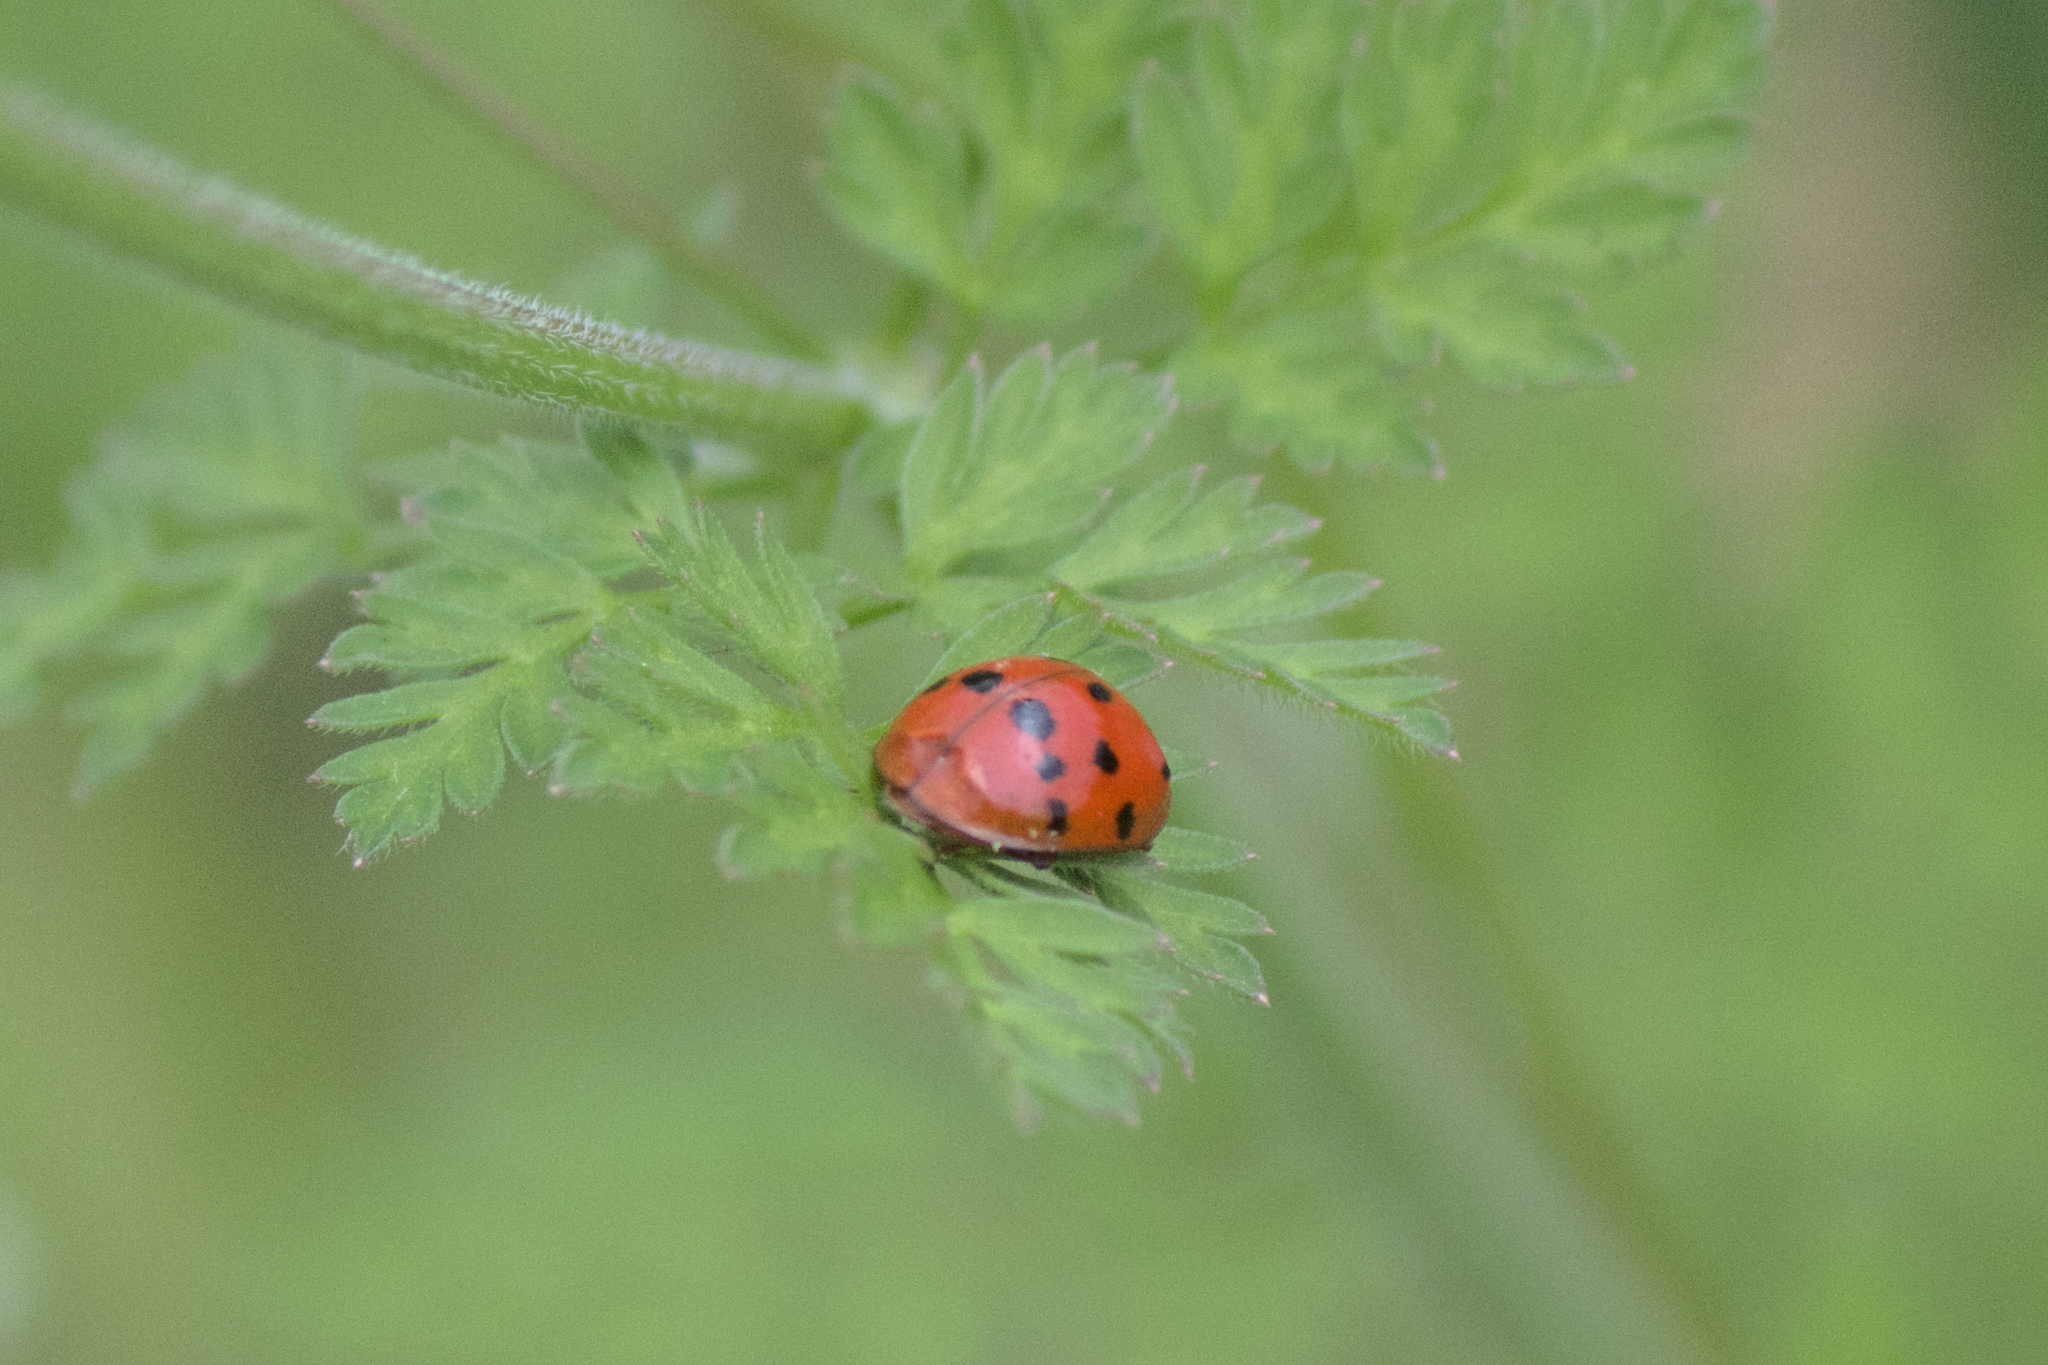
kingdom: Animalia
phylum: Arthropoda
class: Insecta
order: Coleoptera
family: Coccinellidae
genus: Harmonia
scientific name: Harmonia axyridis
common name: Harlequin ladybird
